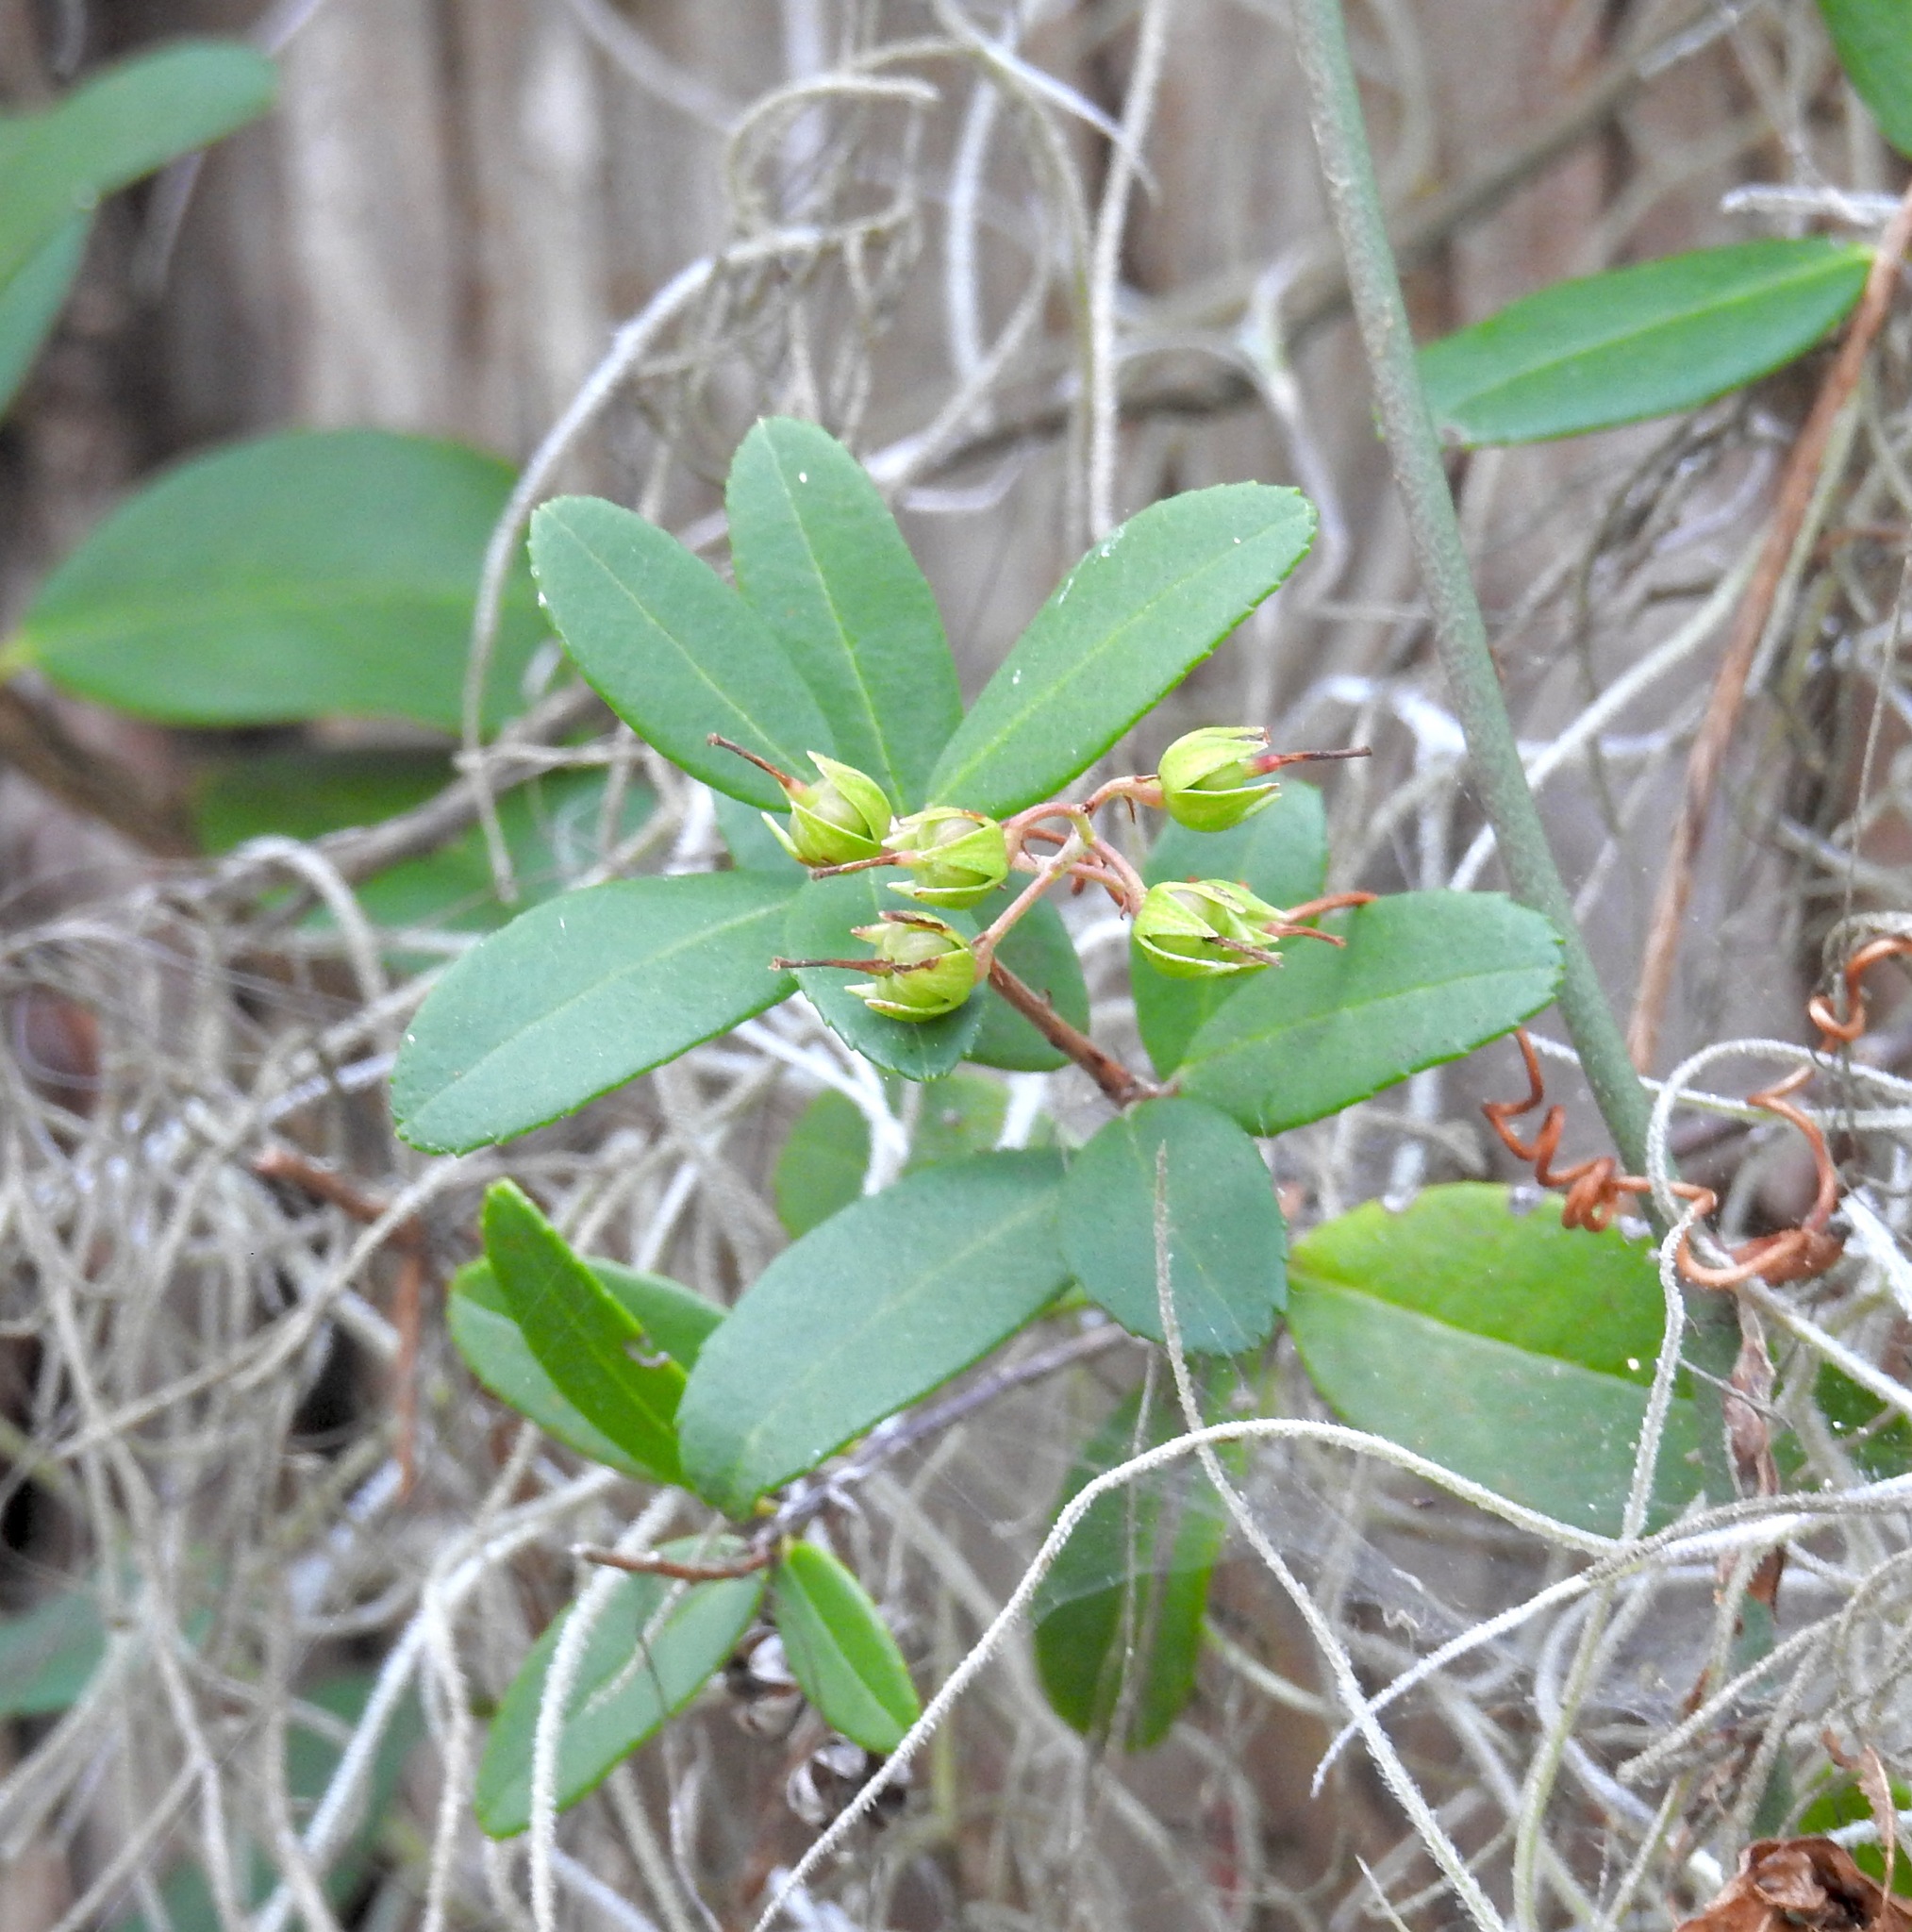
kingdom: Plantae
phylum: Tracheophyta
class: Magnoliopsida
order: Ericales
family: Ericaceae
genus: Pieris
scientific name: Pieris phillyreifolia
